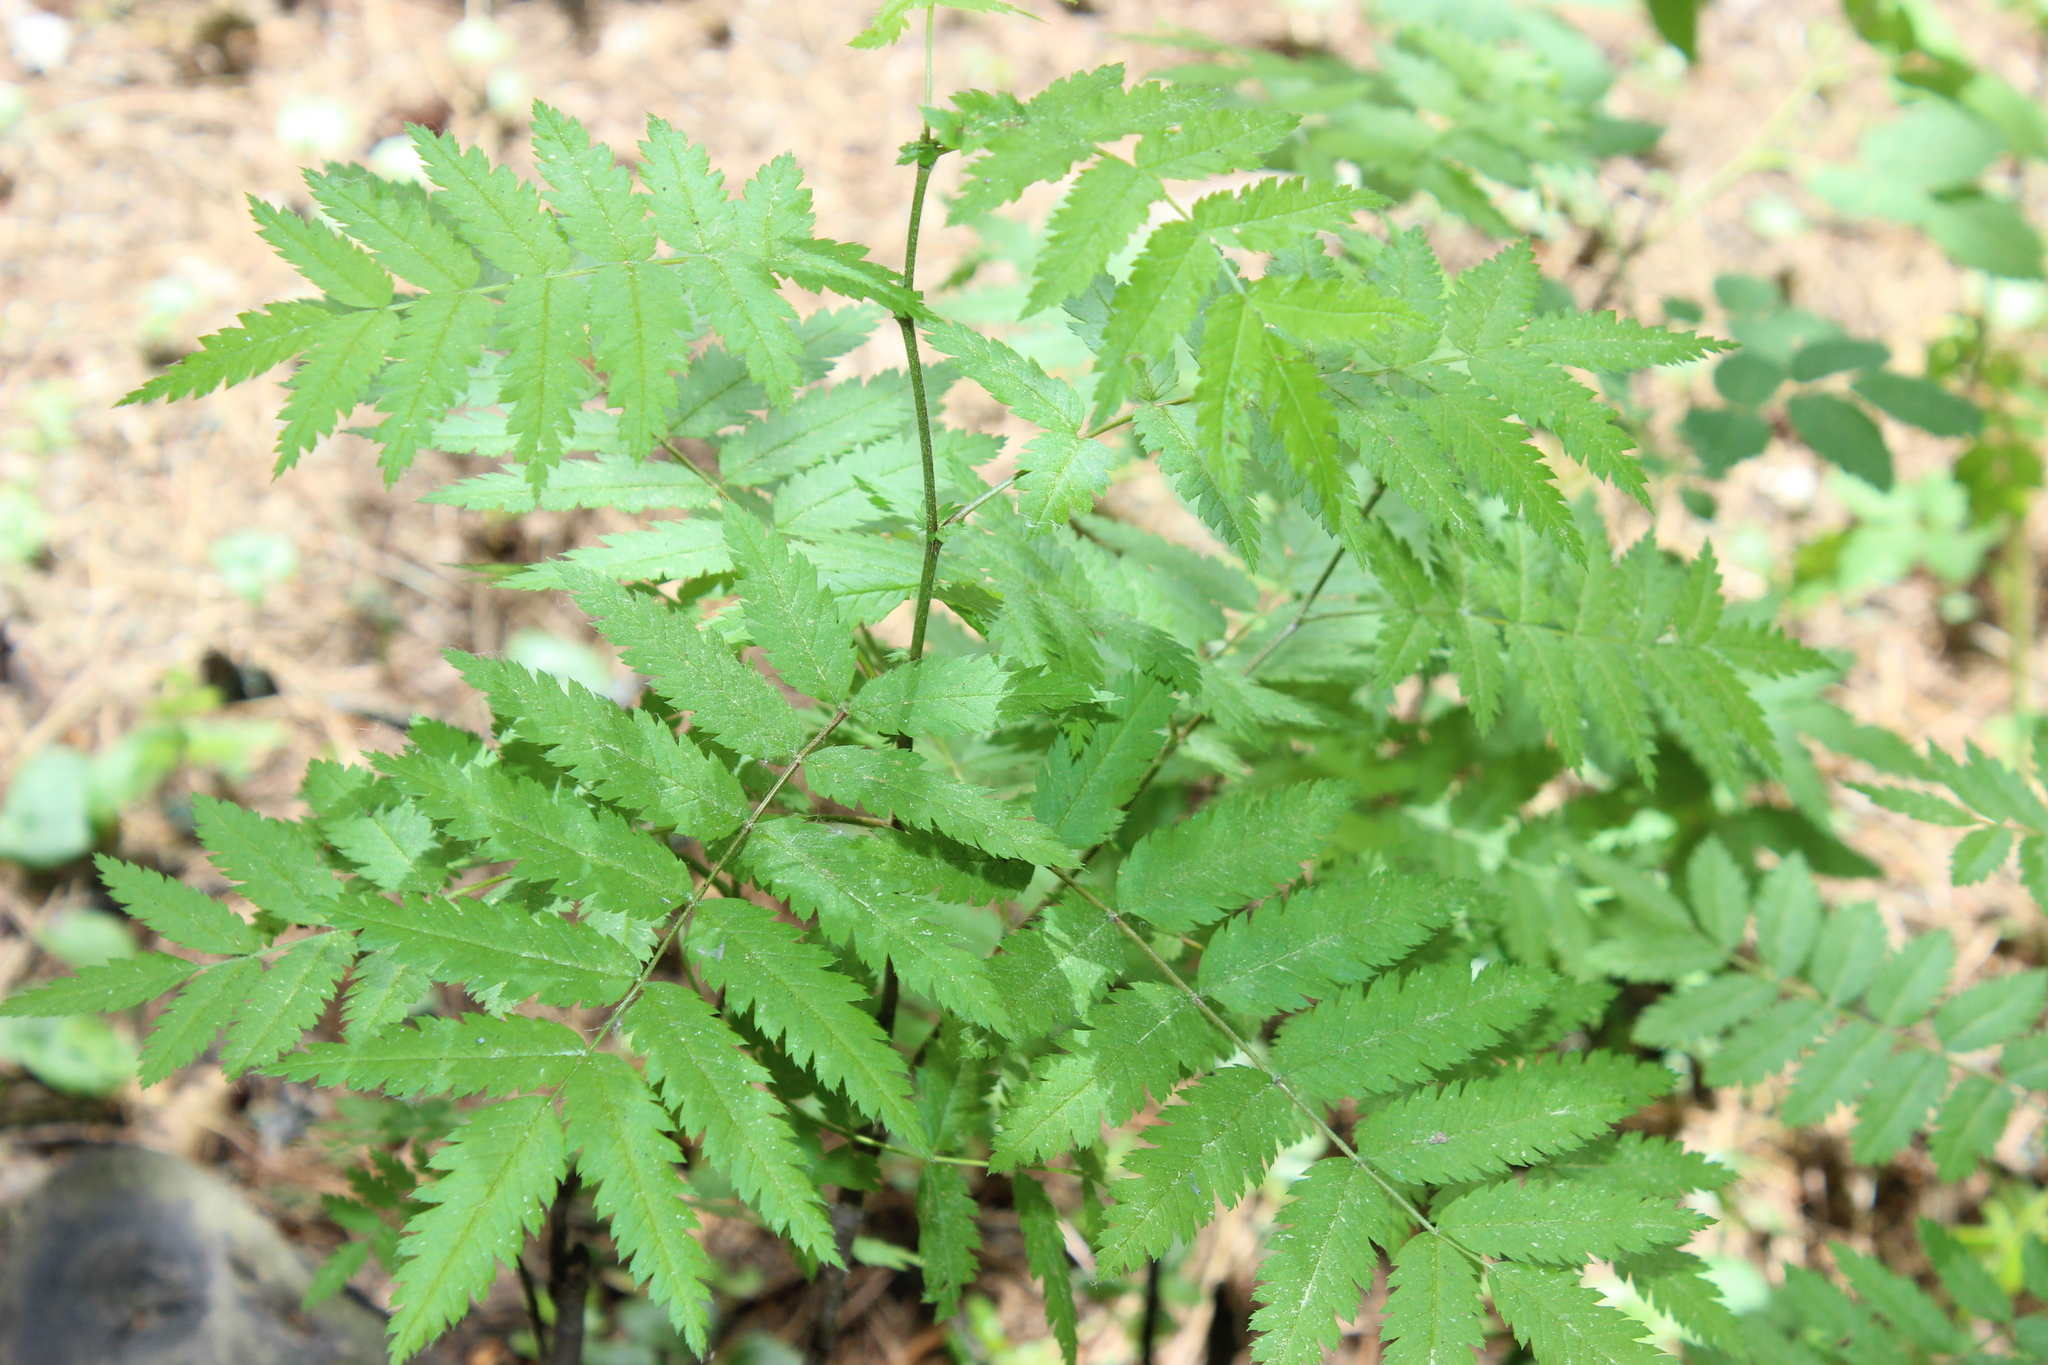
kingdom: Plantae
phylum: Tracheophyta
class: Magnoliopsida
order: Rosales
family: Rosaceae
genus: Sorbus
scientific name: Sorbus aucuparia
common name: Rowan
